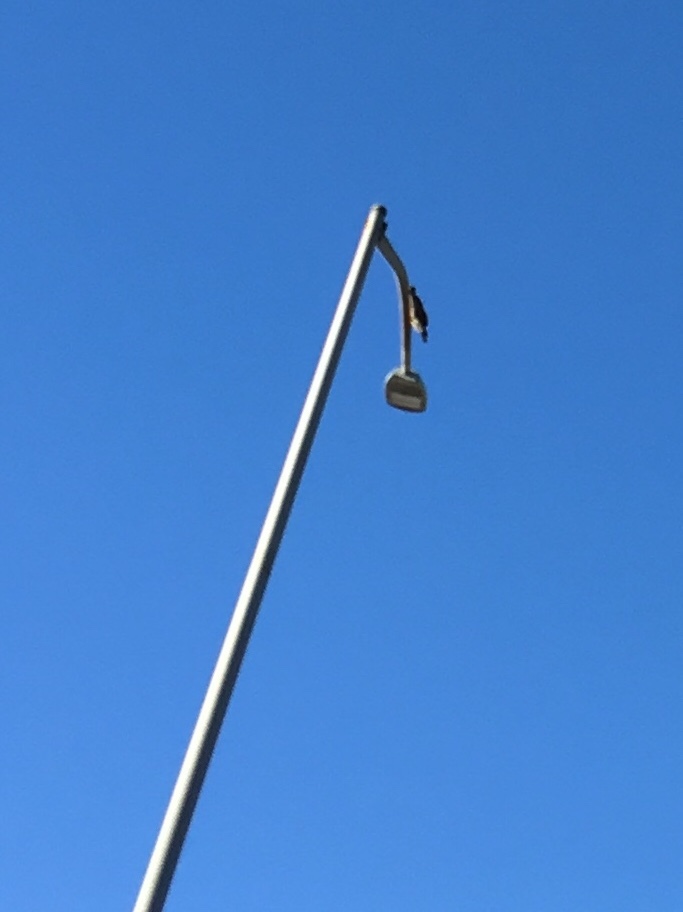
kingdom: Animalia
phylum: Chordata
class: Aves
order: Accipitriformes
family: Accipitridae
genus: Buteo
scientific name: Buteo jamaicensis
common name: Red-tailed hawk
